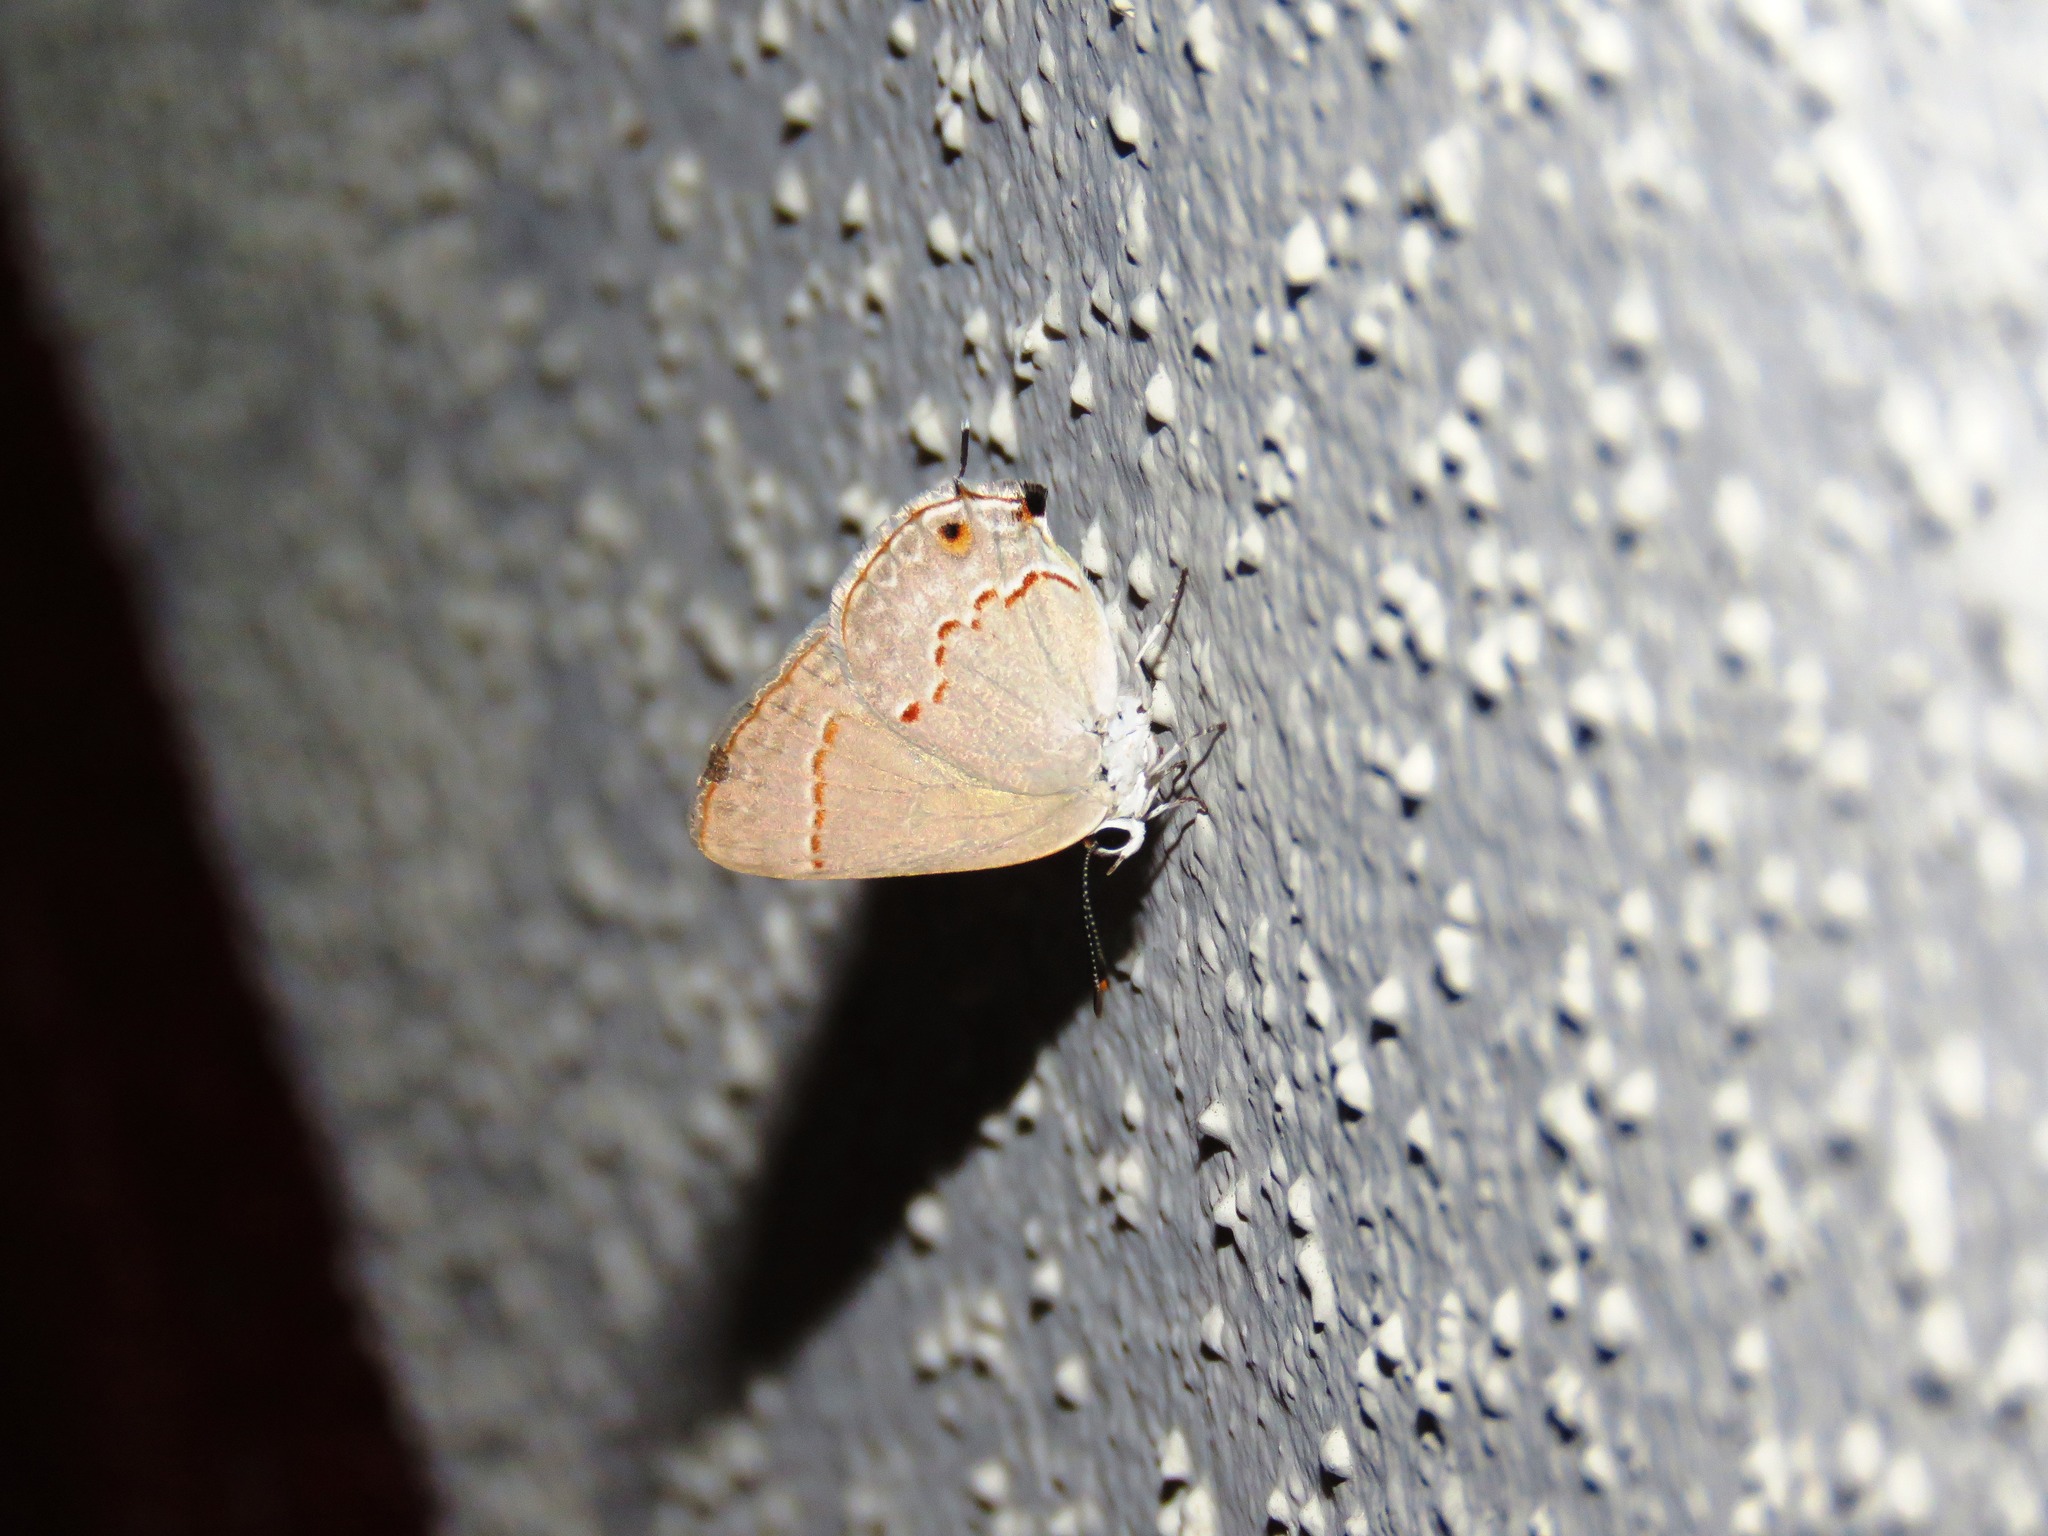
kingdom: Animalia
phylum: Arthropoda
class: Insecta
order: Lepidoptera
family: Lycaenidae
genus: Thecla
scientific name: Thecla rufofusca
